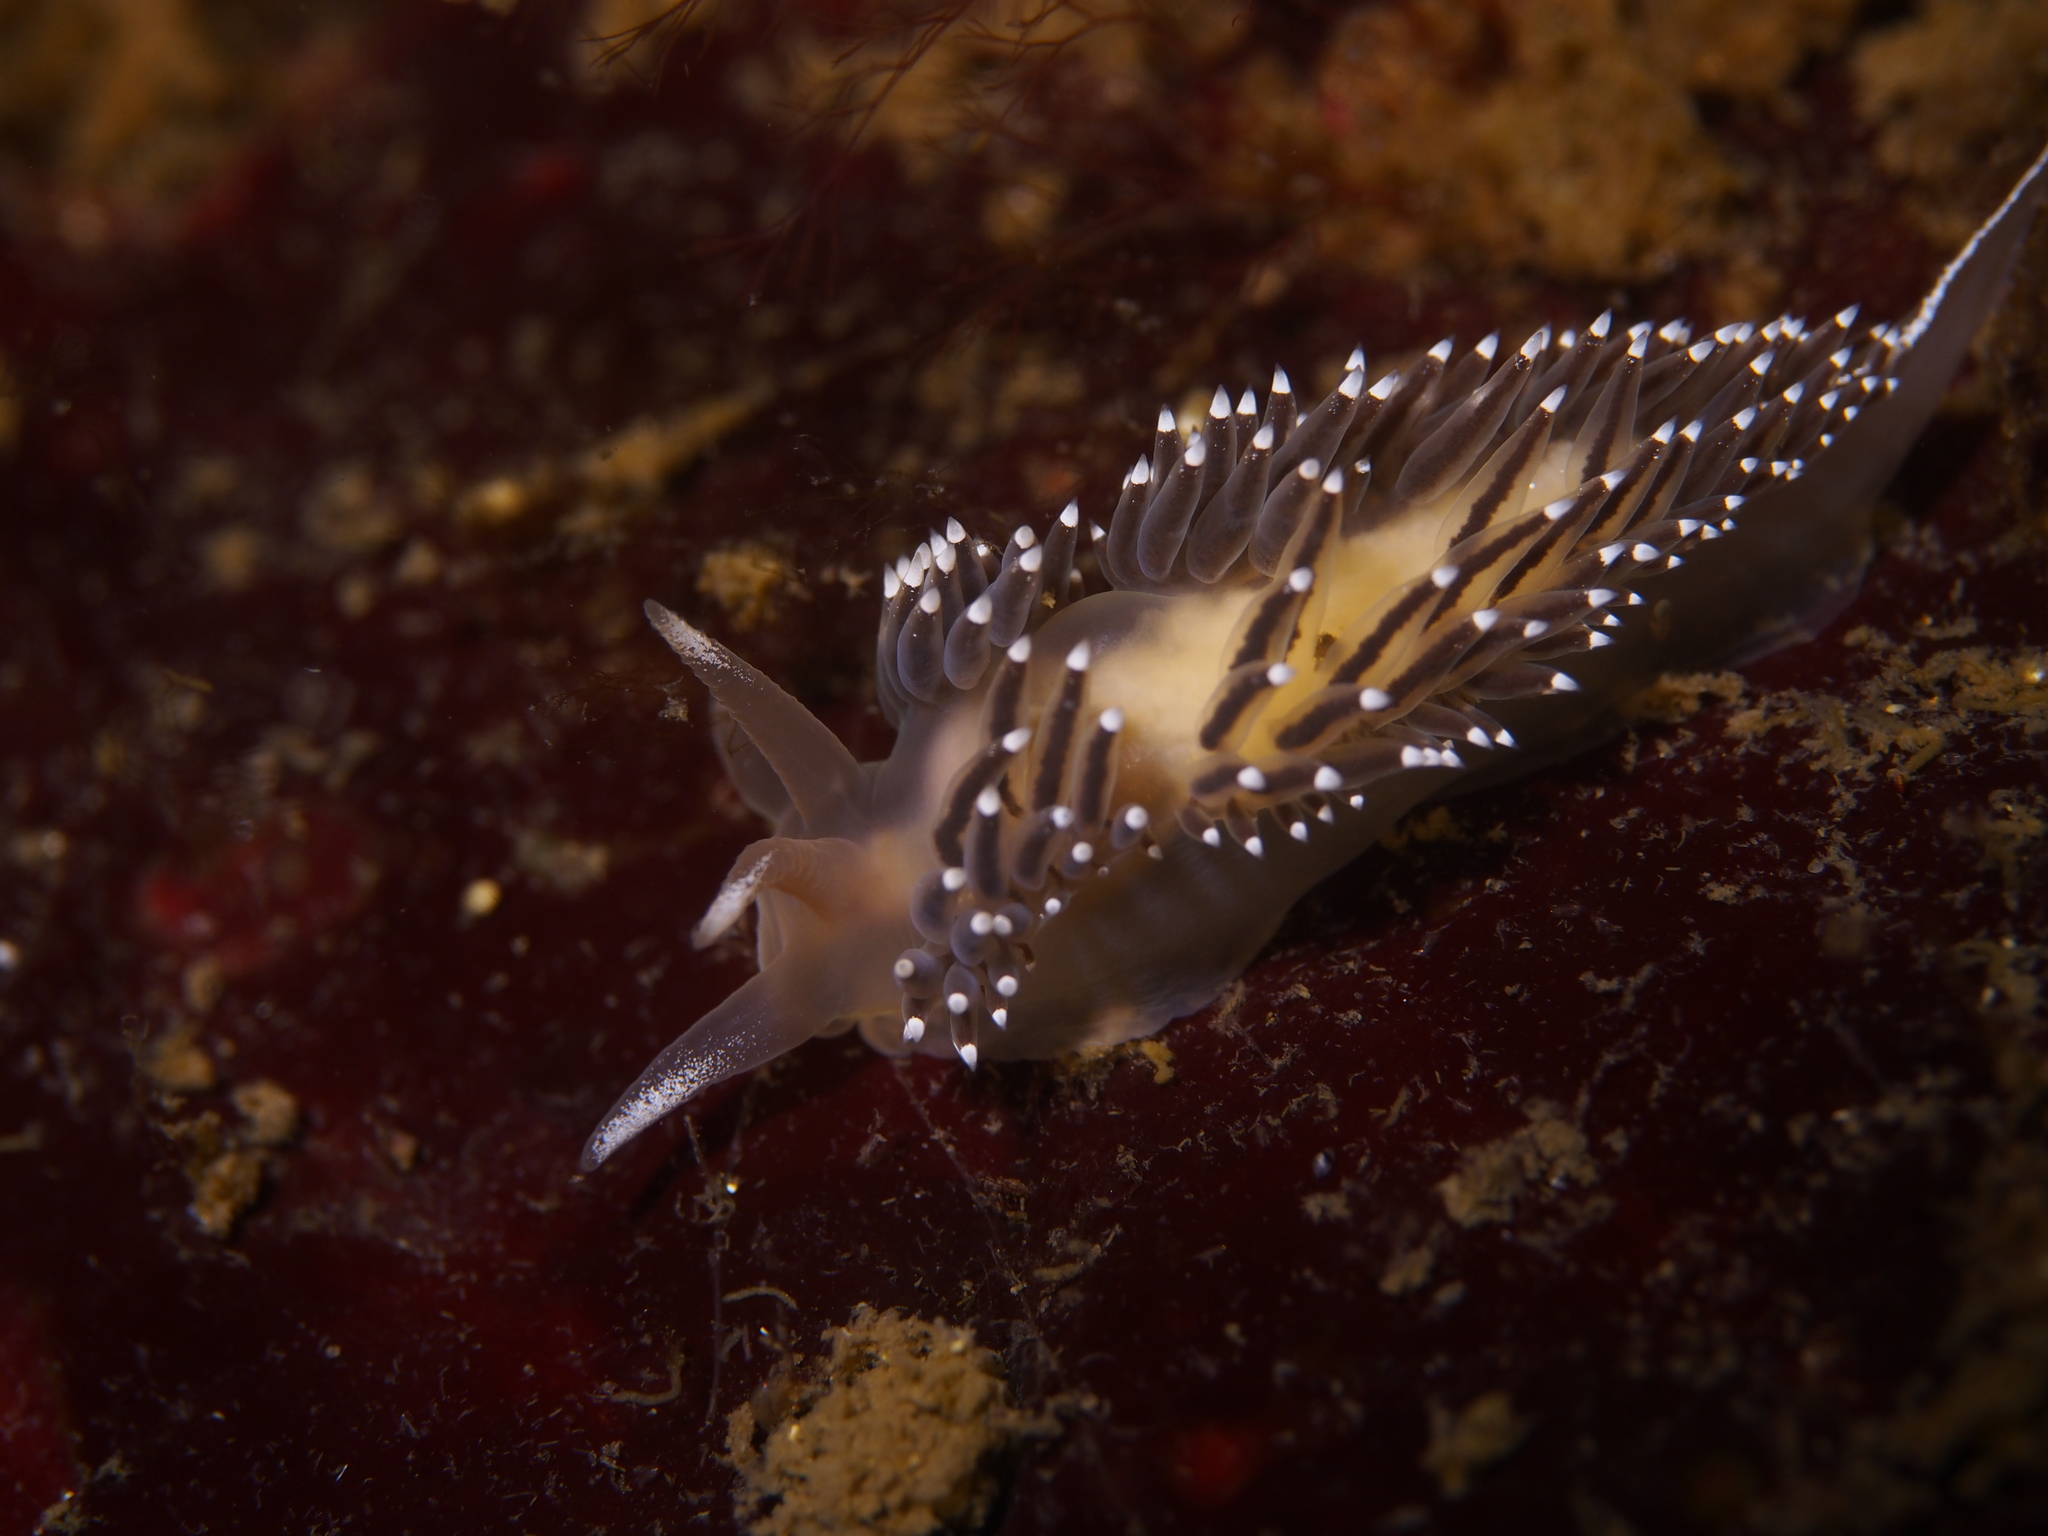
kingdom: Animalia
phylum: Mollusca
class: Gastropoda
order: Nudibranchia
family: Coryphellidae
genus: Coryphella
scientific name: Coryphella nobilis
